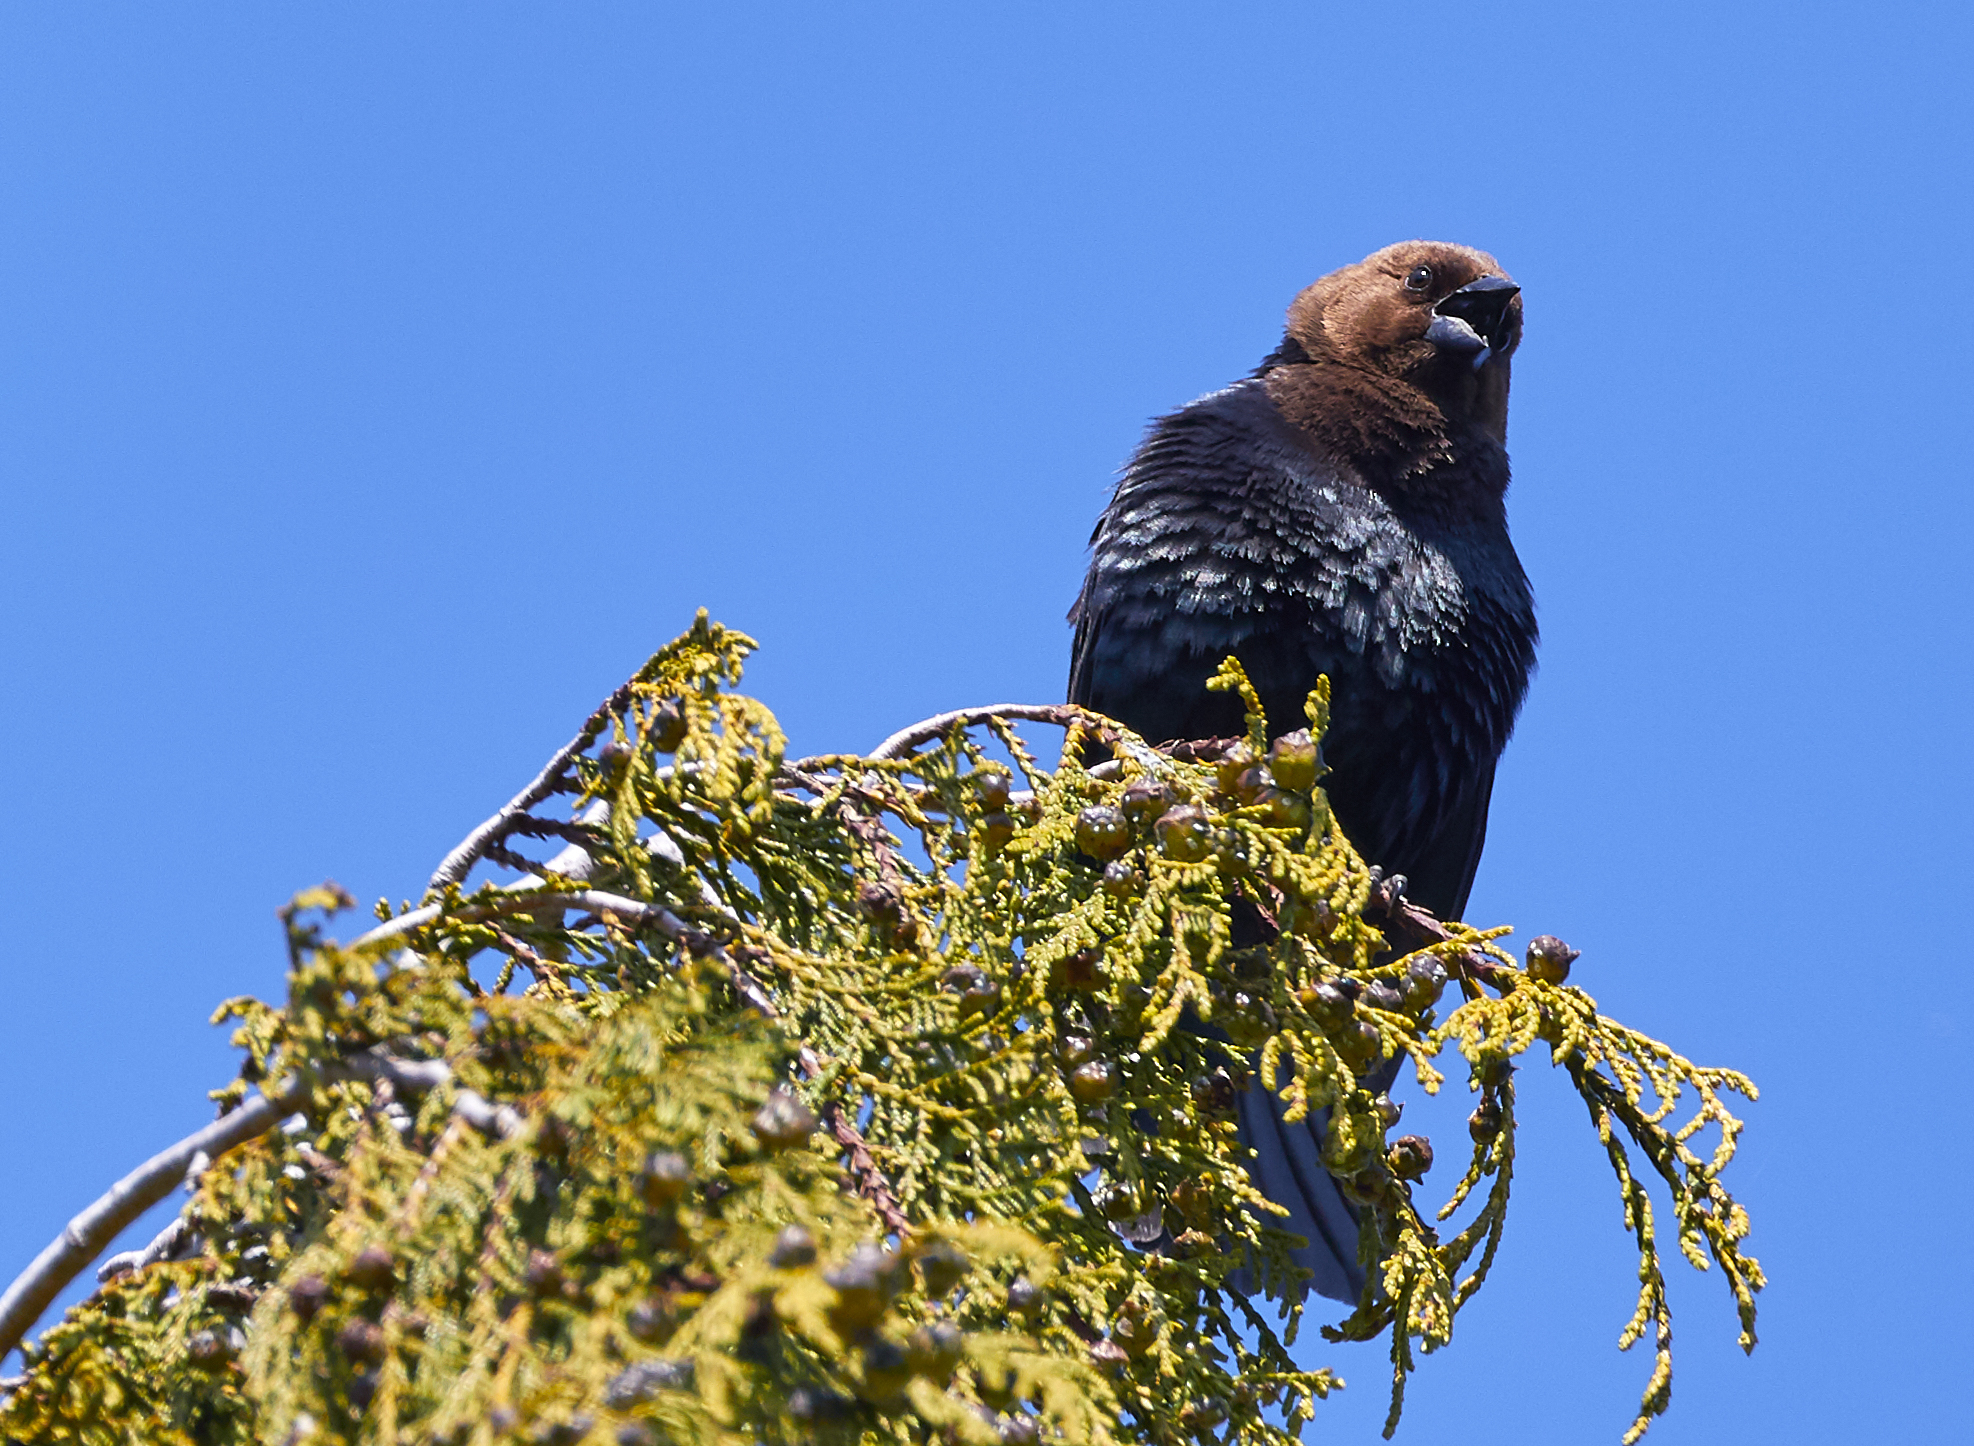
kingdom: Animalia
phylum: Chordata
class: Aves
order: Passeriformes
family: Icteridae
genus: Molothrus
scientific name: Molothrus ater
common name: Brown-headed cowbird
